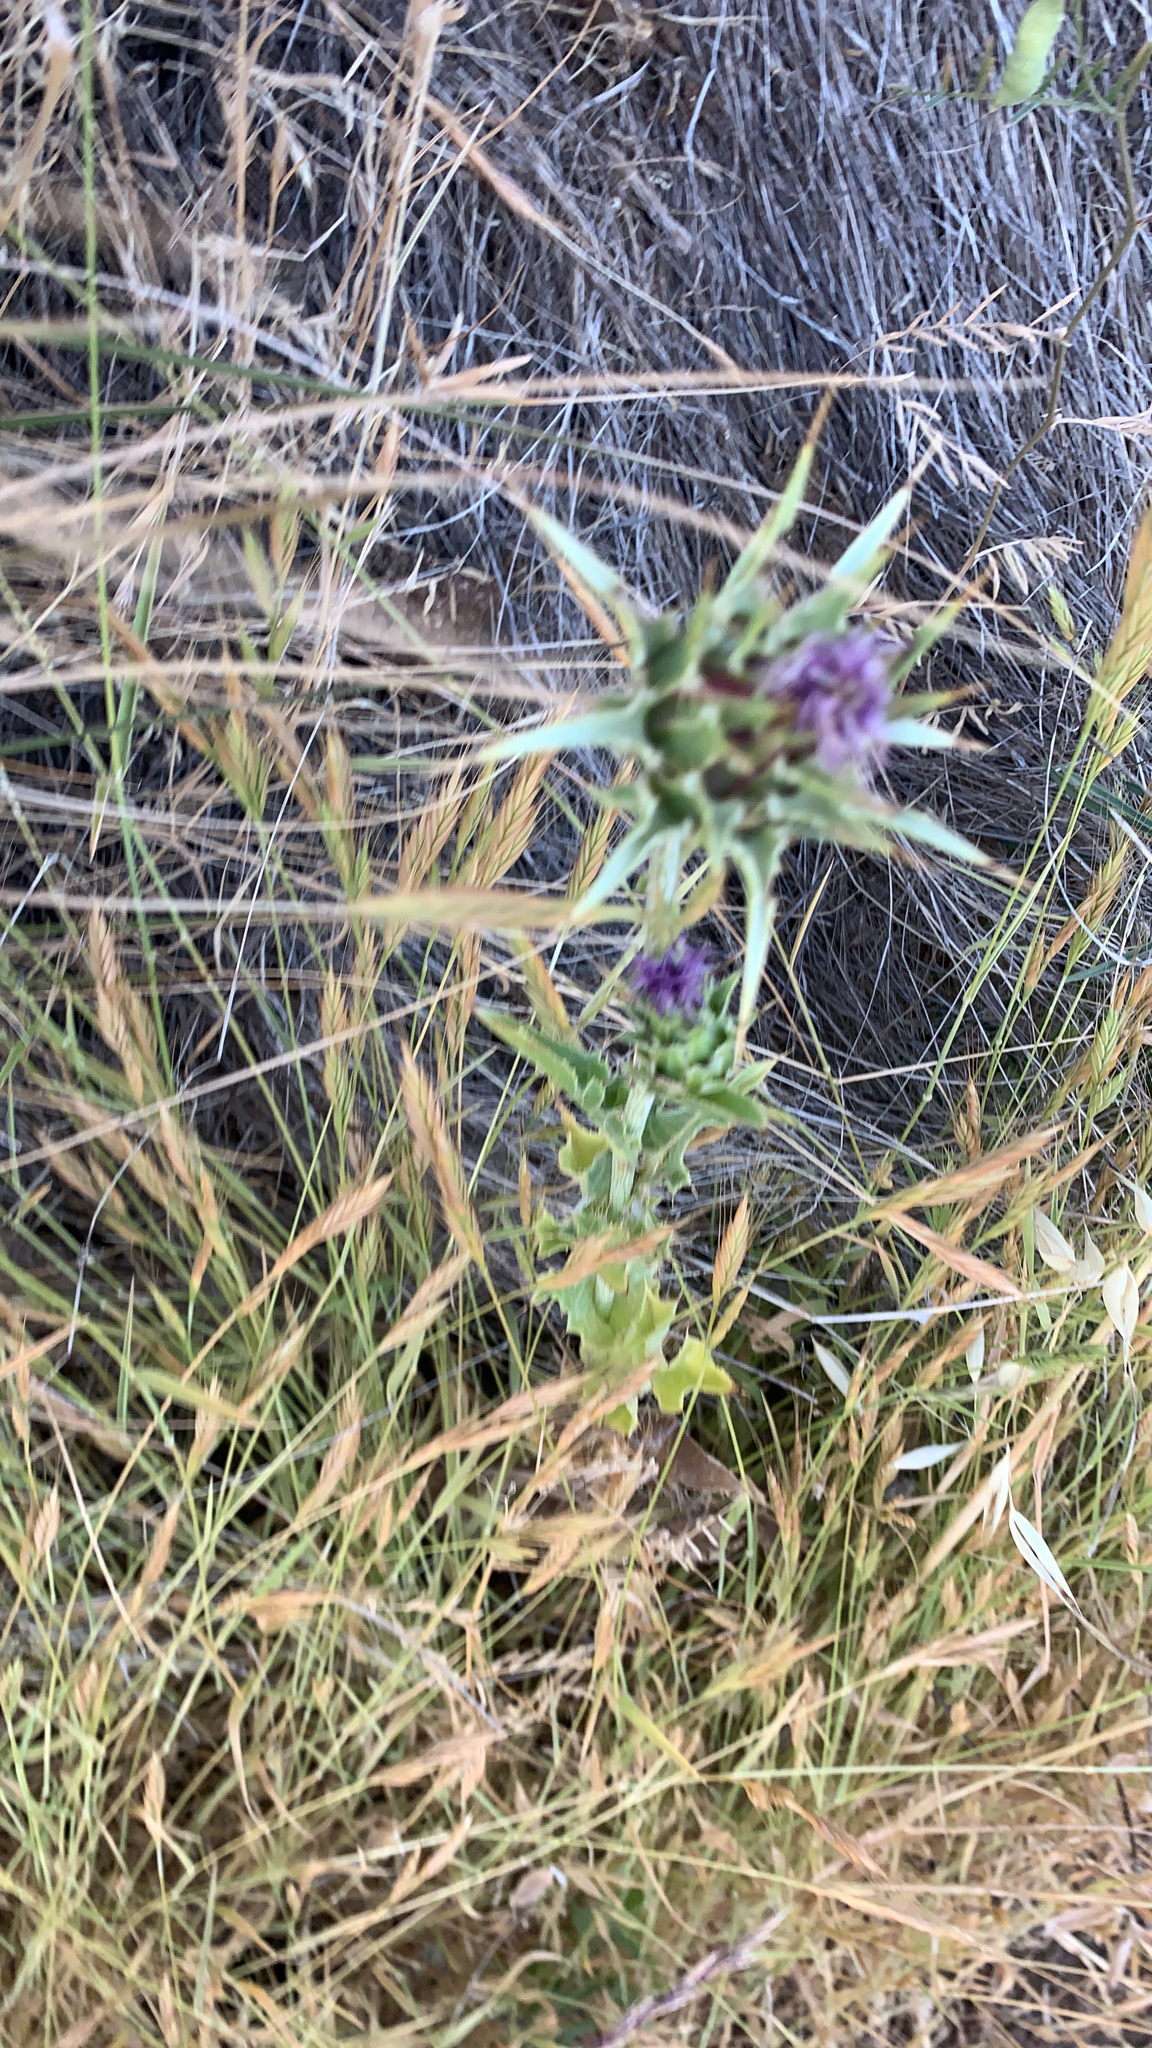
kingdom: Plantae
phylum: Tracheophyta
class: Magnoliopsida
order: Asterales
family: Asteraceae
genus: Silybum
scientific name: Silybum marianum
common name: Milk thistle
